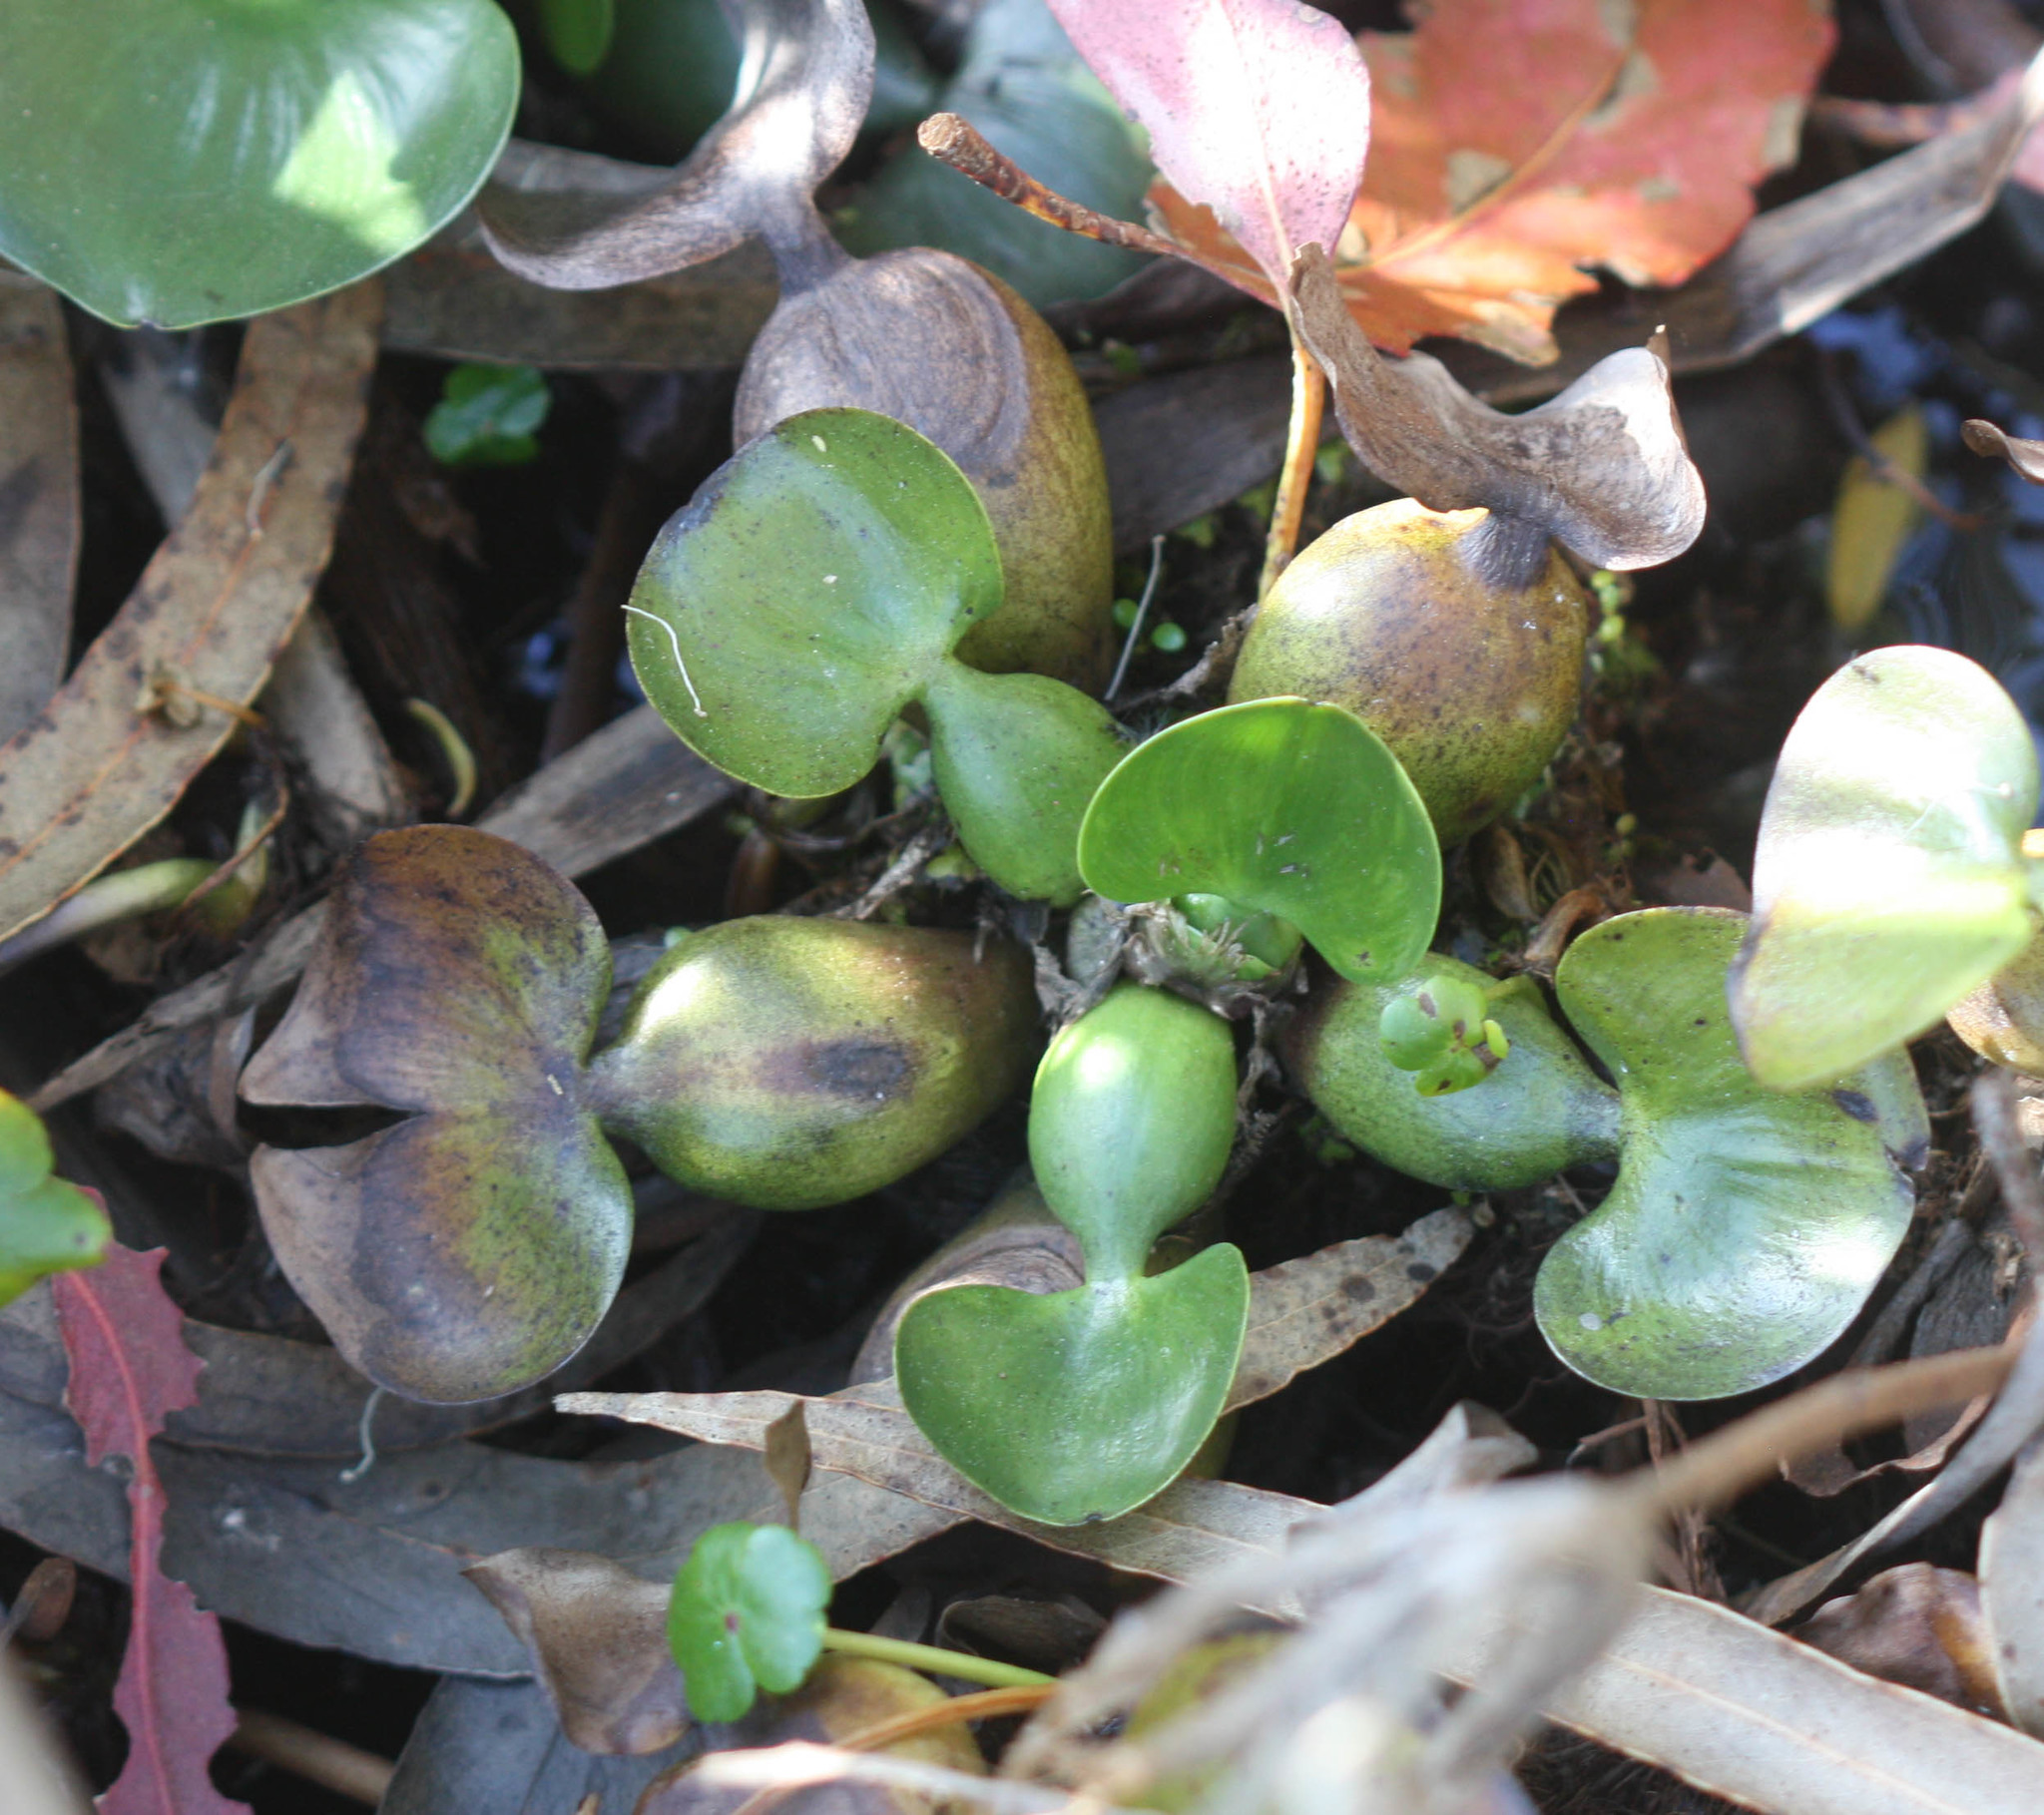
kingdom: Plantae
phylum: Tracheophyta
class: Liliopsida
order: Commelinales
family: Pontederiaceae
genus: Pontederia
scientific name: Pontederia crassipes
